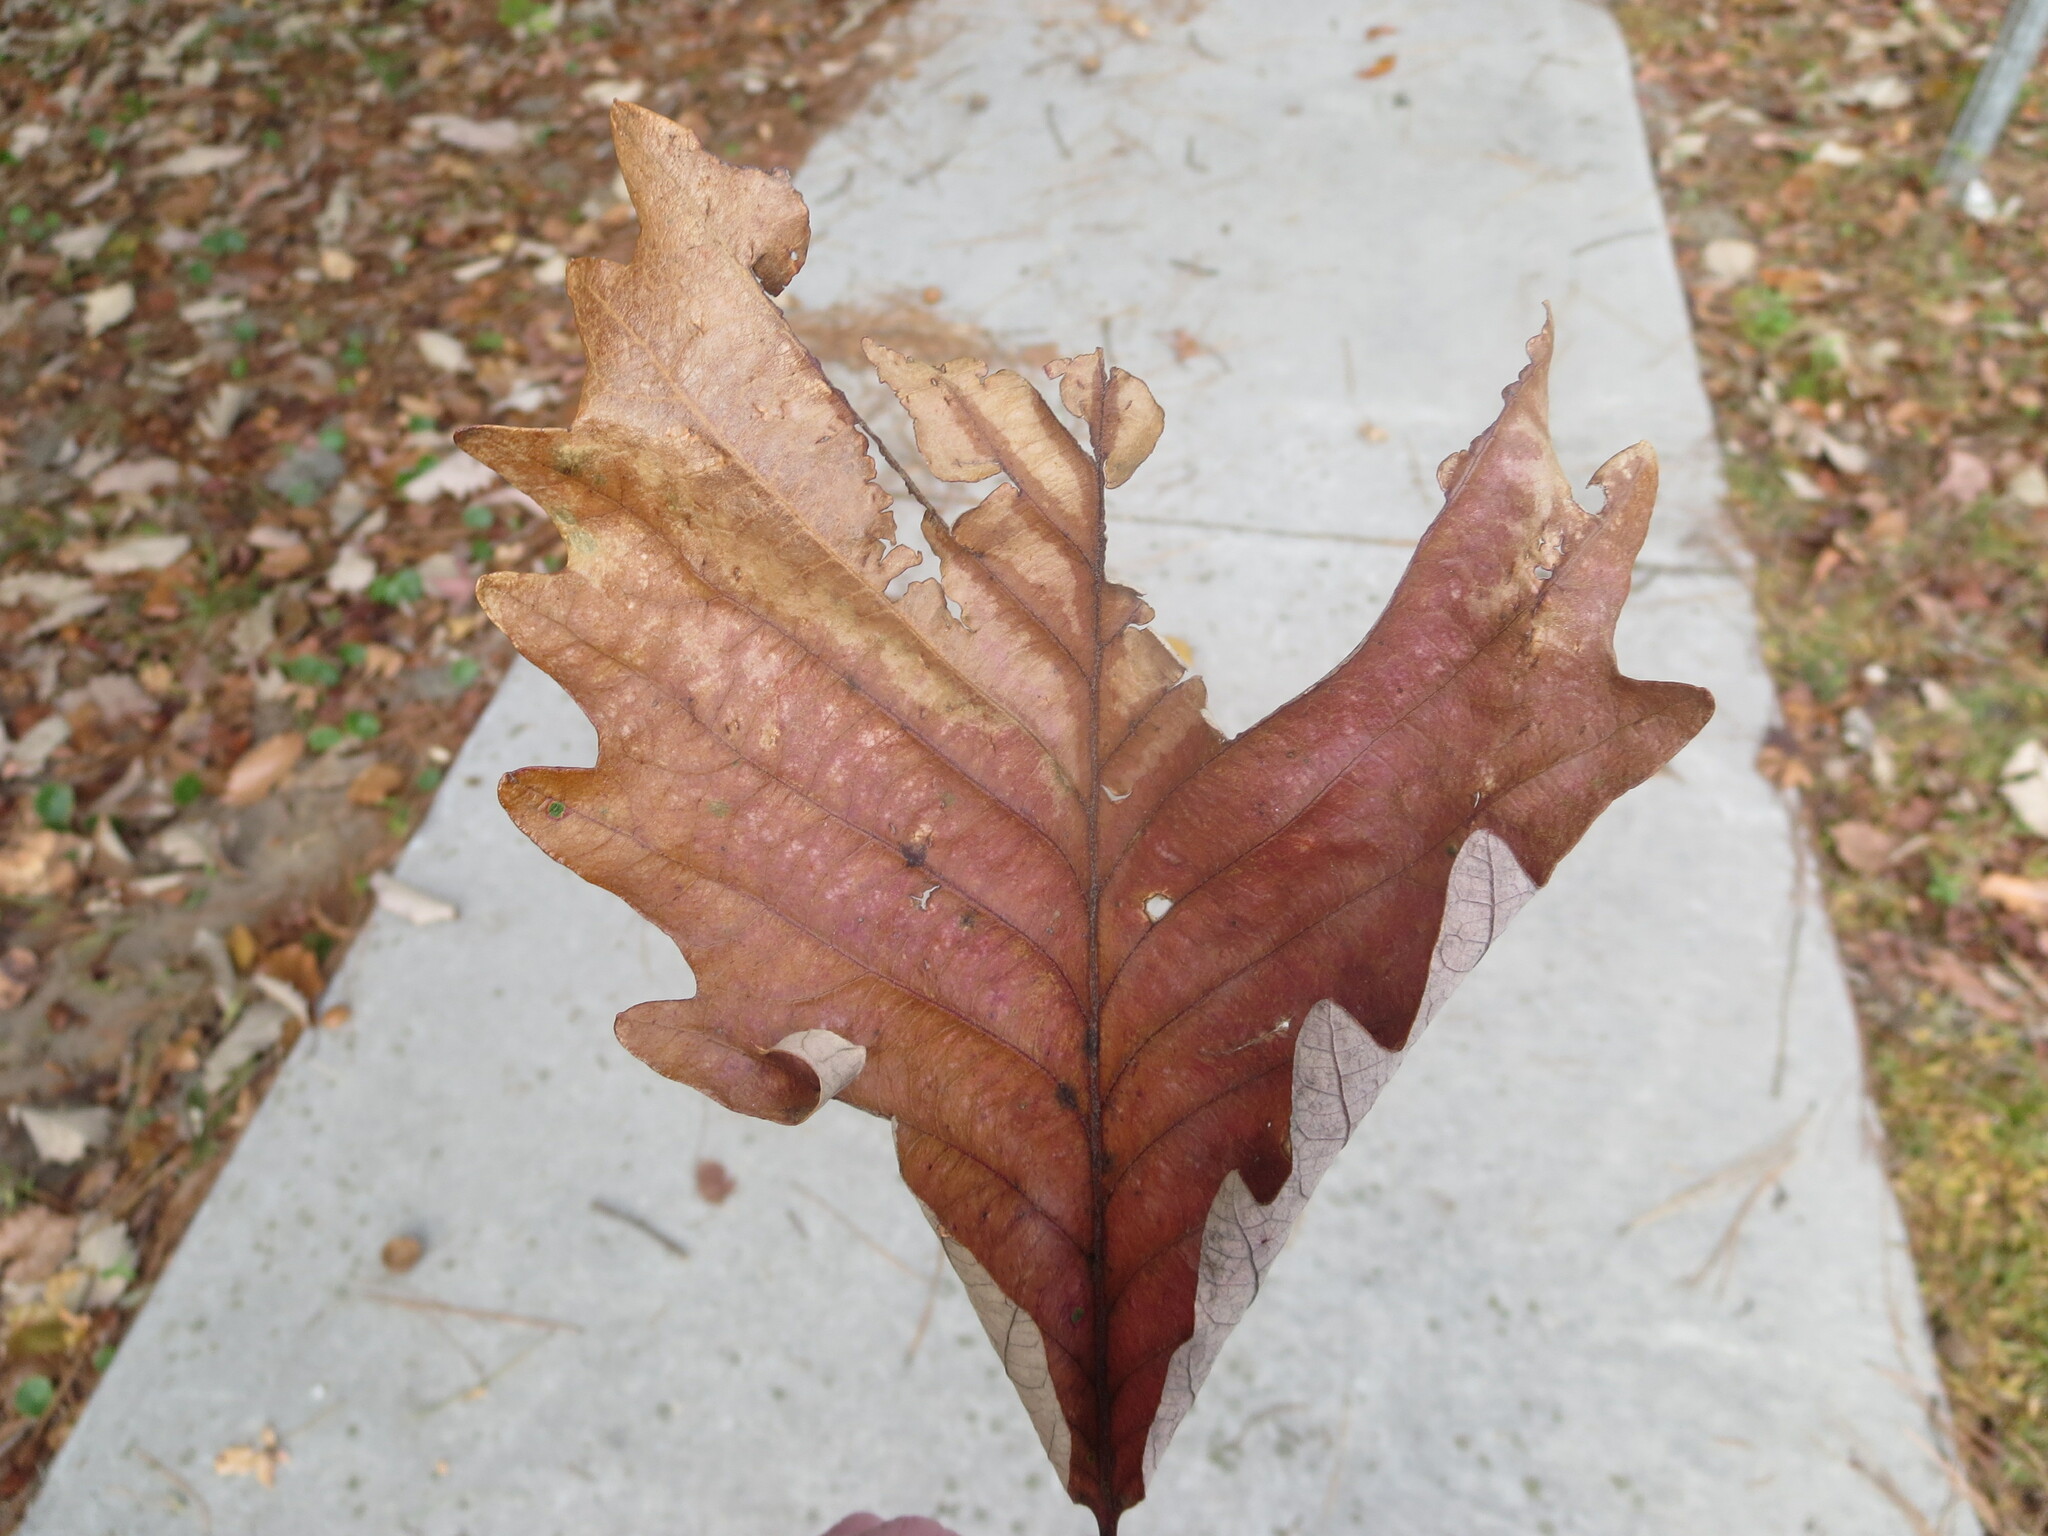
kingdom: Plantae
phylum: Tracheophyta
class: Magnoliopsida
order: Fagales
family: Fagaceae
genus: Quercus
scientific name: Quercus michauxii
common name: Swamp chestnut oak
